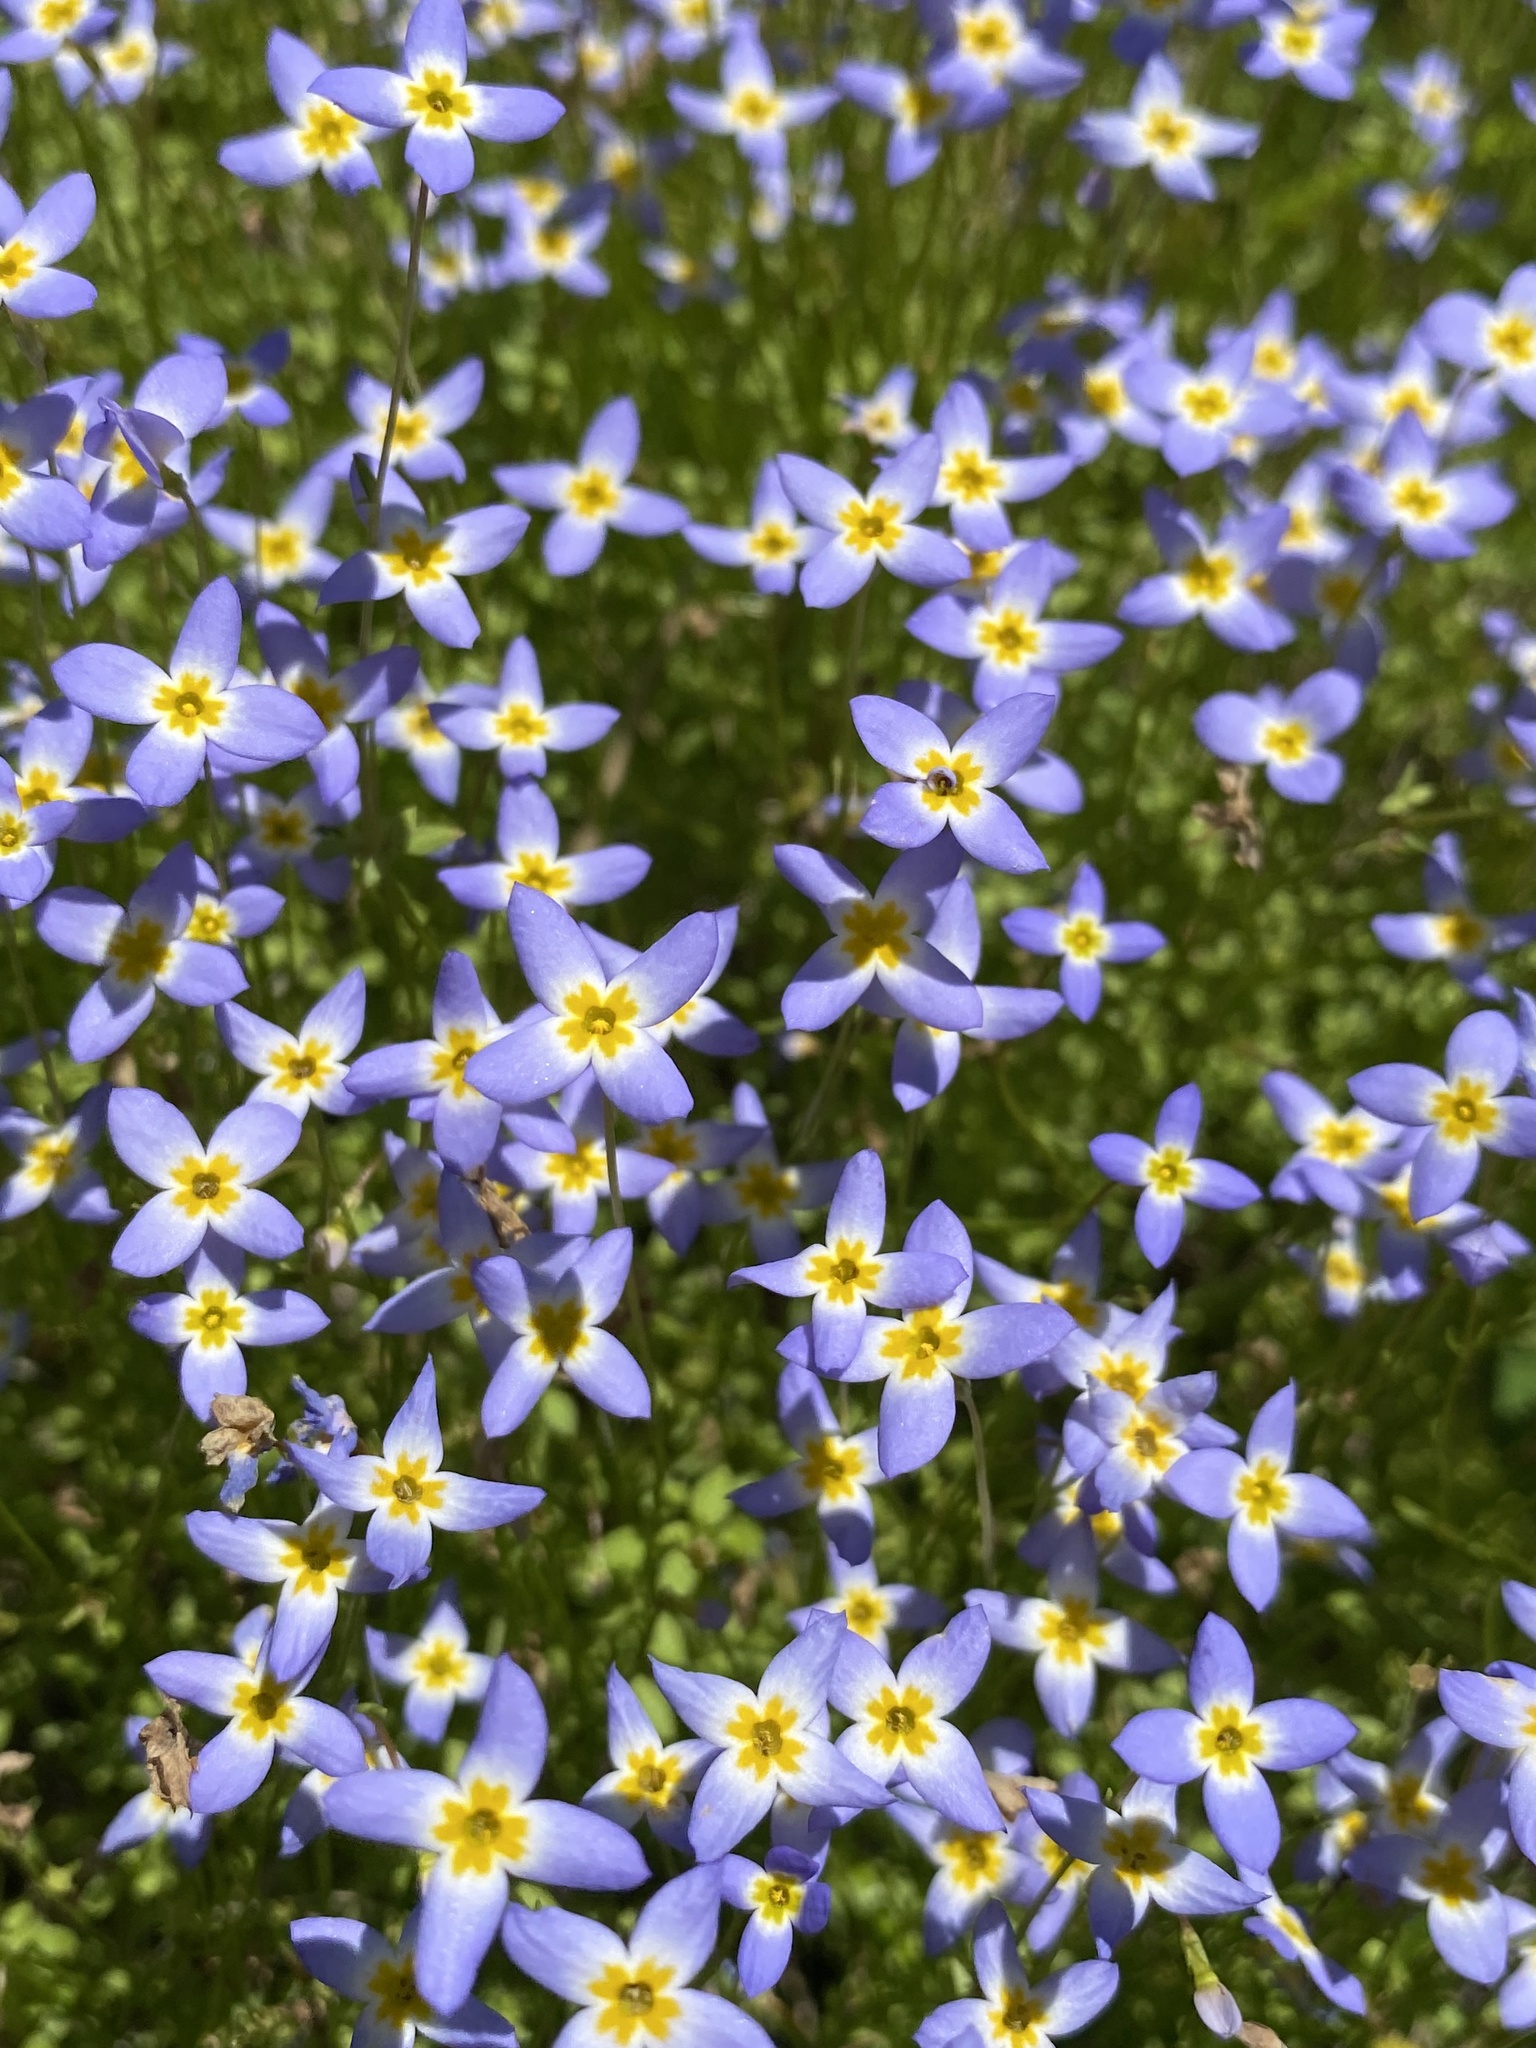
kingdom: Plantae
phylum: Tracheophyta
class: Magnoliopsida
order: Gentianales
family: Rubiaceae
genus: Houstonia
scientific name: Houstonia serpyllifolia
